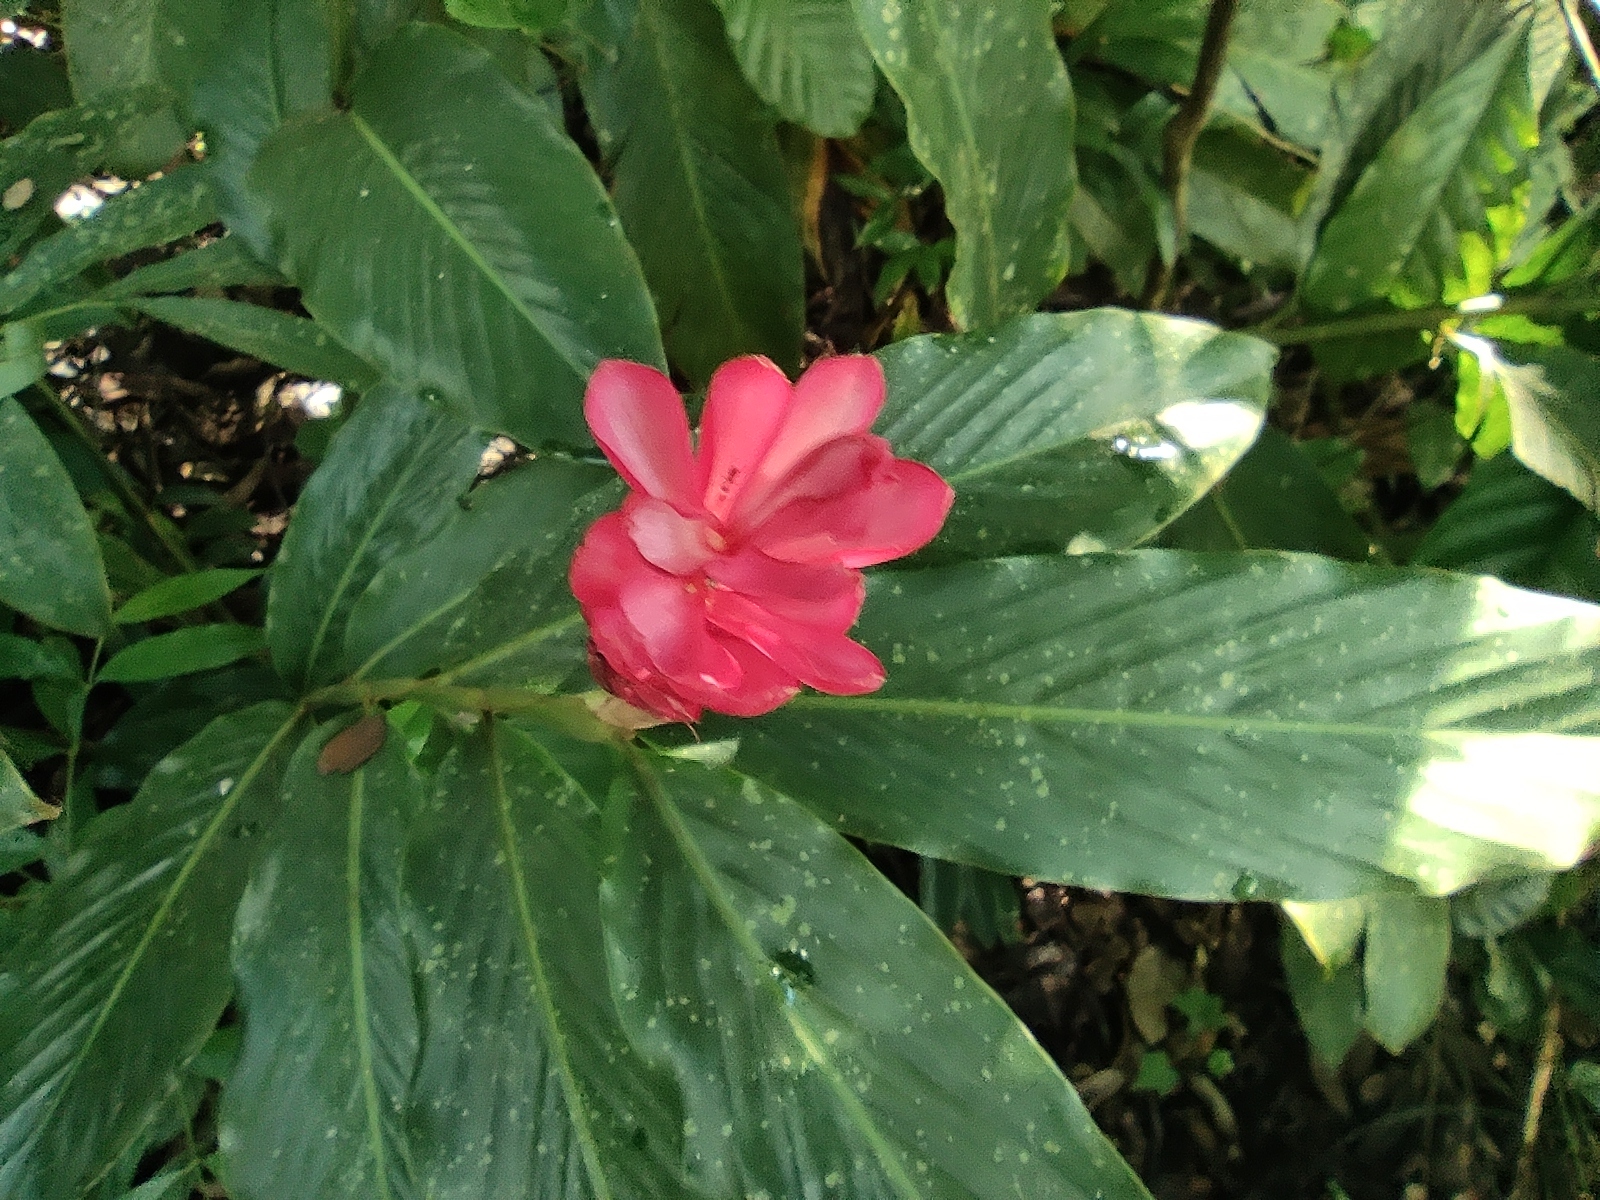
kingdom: Plantae
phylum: Tracheophyta
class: Liliopsida
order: Zingiberales
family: Zingiberaceae
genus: Alpinia
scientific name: Alpinia purpurata
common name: Red ginger
